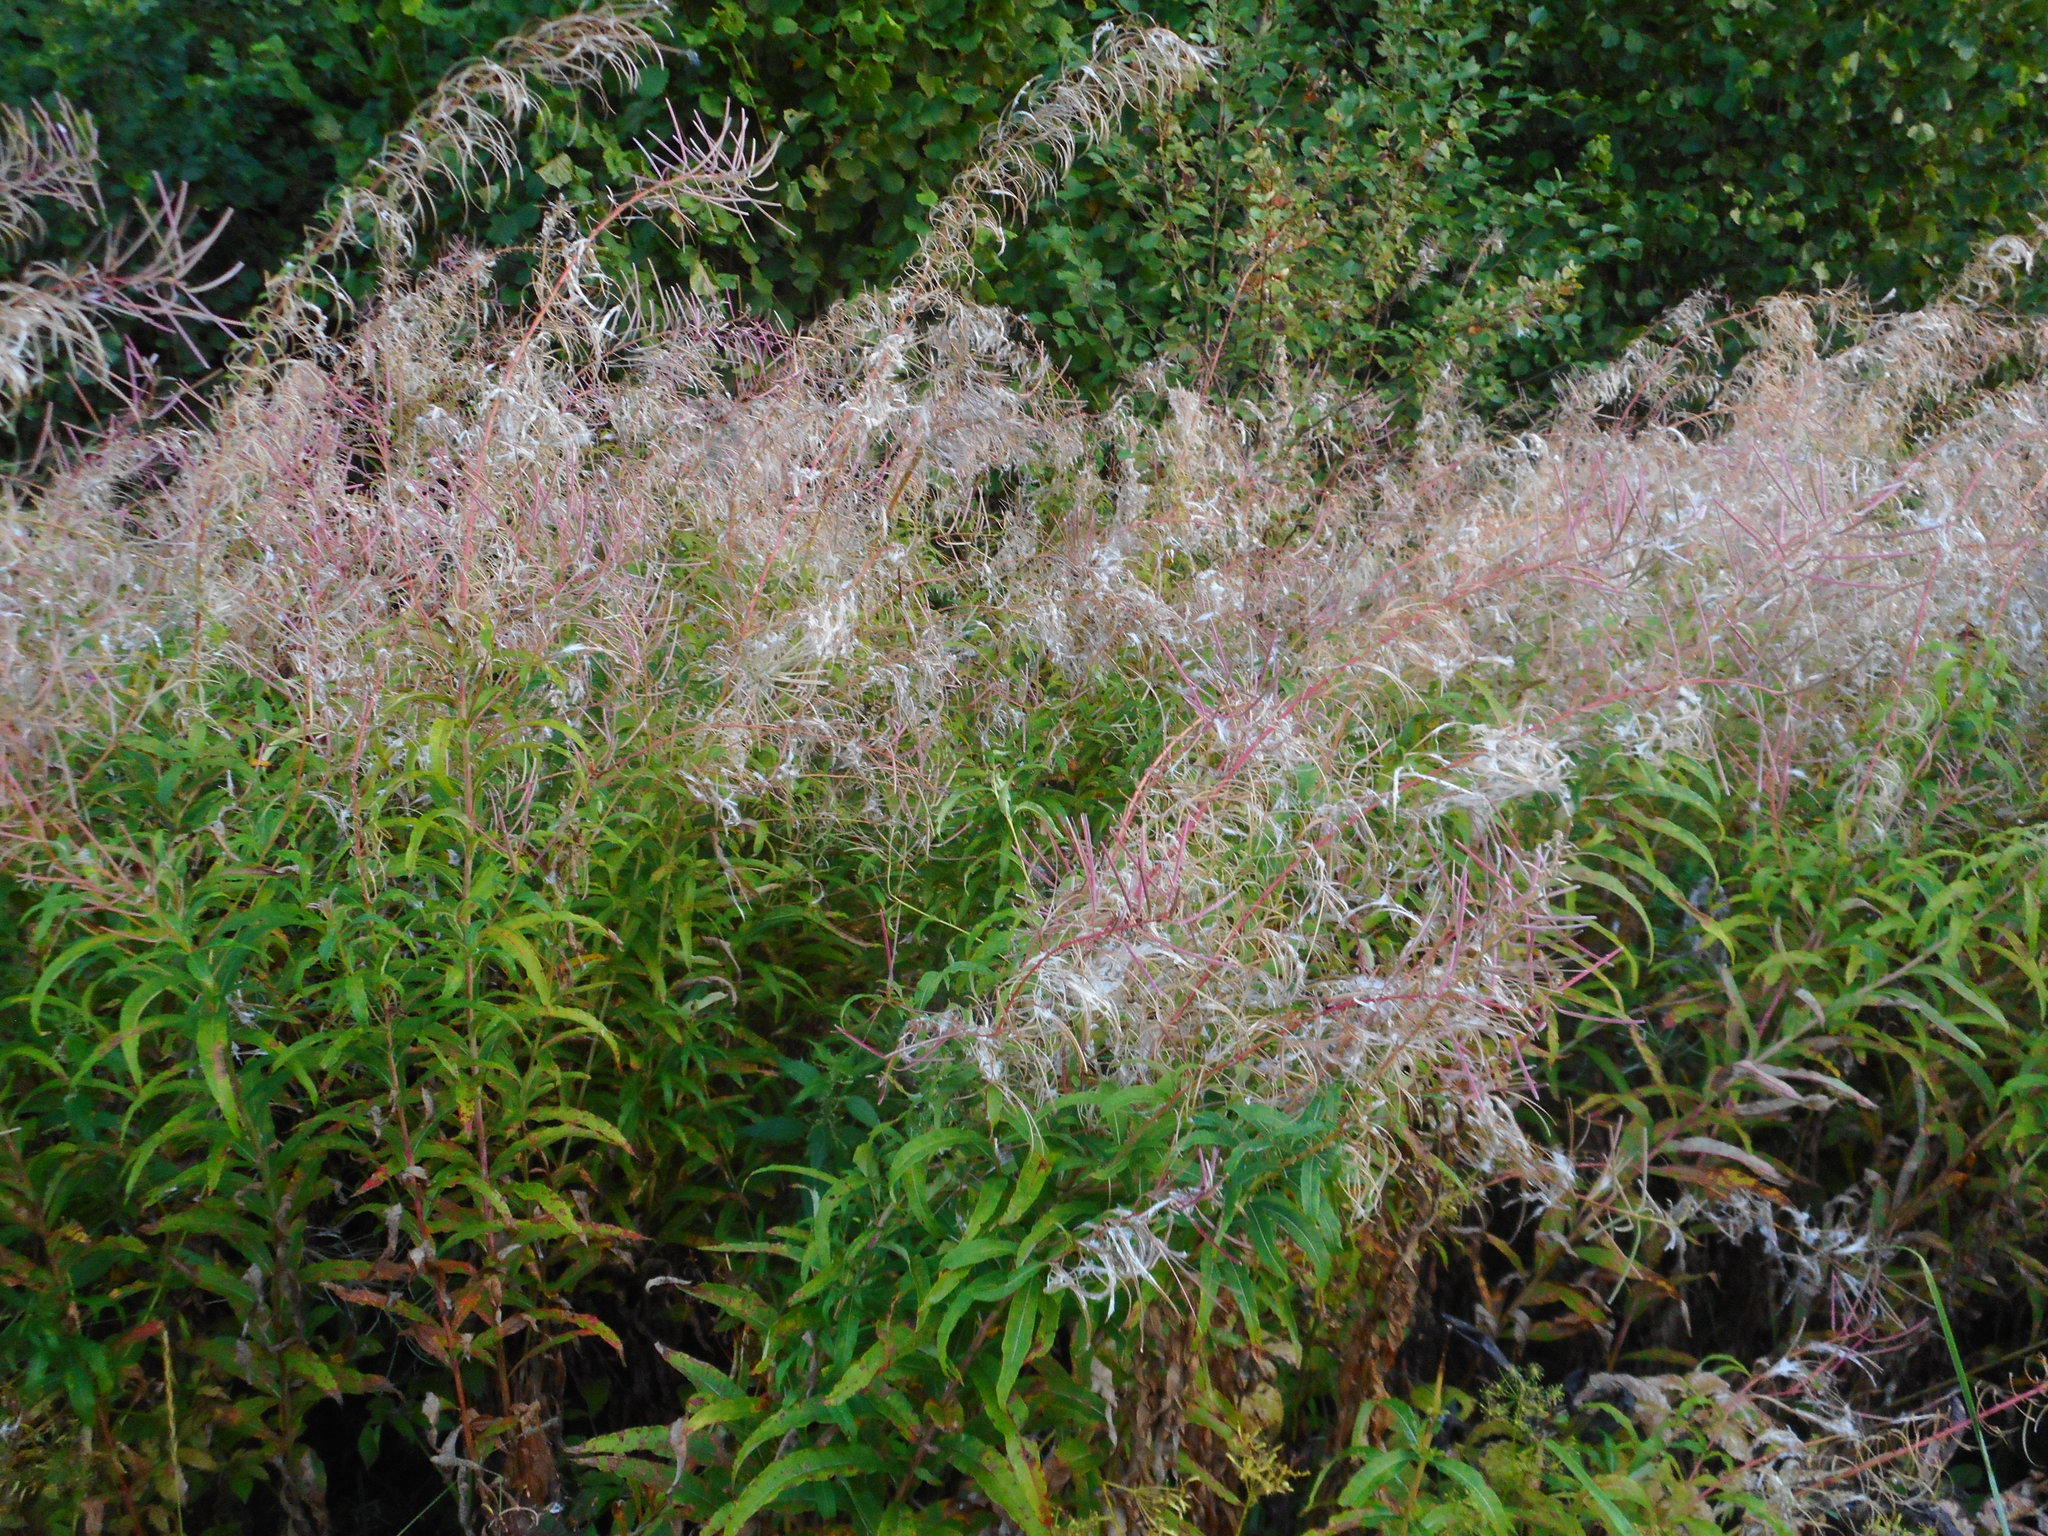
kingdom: Plantae
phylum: Tracheophyta
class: Magnoliopsida
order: Myrtales
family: Onagraceae
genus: Chamaenerion
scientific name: Chamaenerion angustifolium
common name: Fireweed
